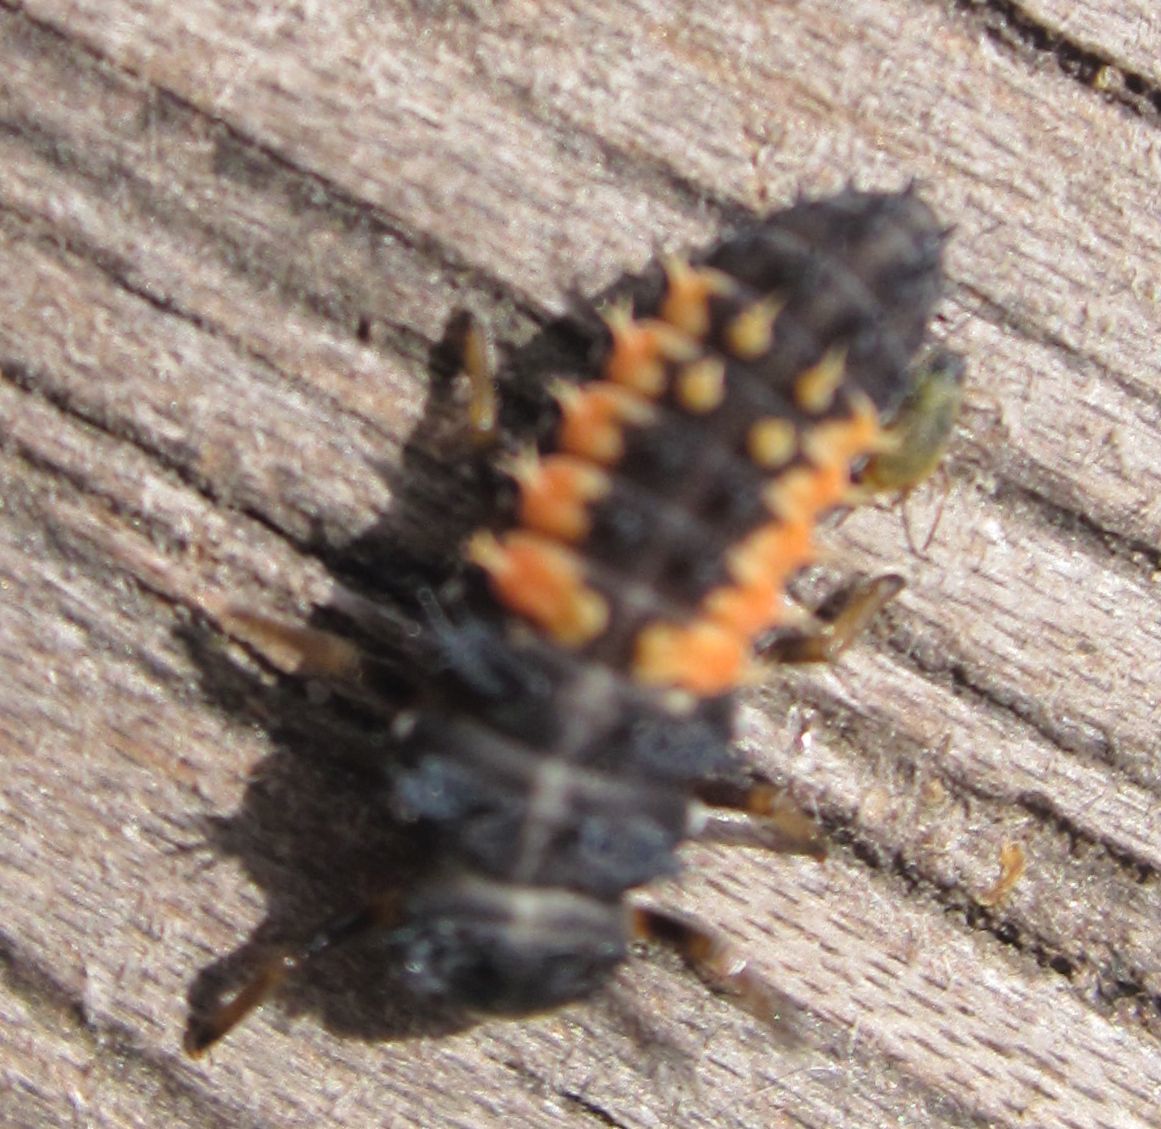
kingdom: Animalia
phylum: Arthropoda
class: Insecta
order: Coleoptera
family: Coccinellidae
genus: Harmonia
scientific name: Harmonia axyridis
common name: Harlequin ladybird
